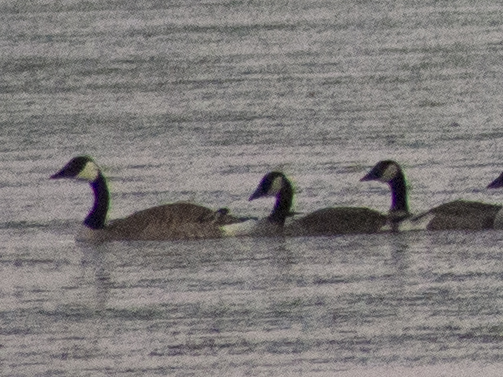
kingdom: Animalia
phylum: Chordata
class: Aves
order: Anseriformes
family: Anatidae
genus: Branta
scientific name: Branta canadensis
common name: Canada goose
